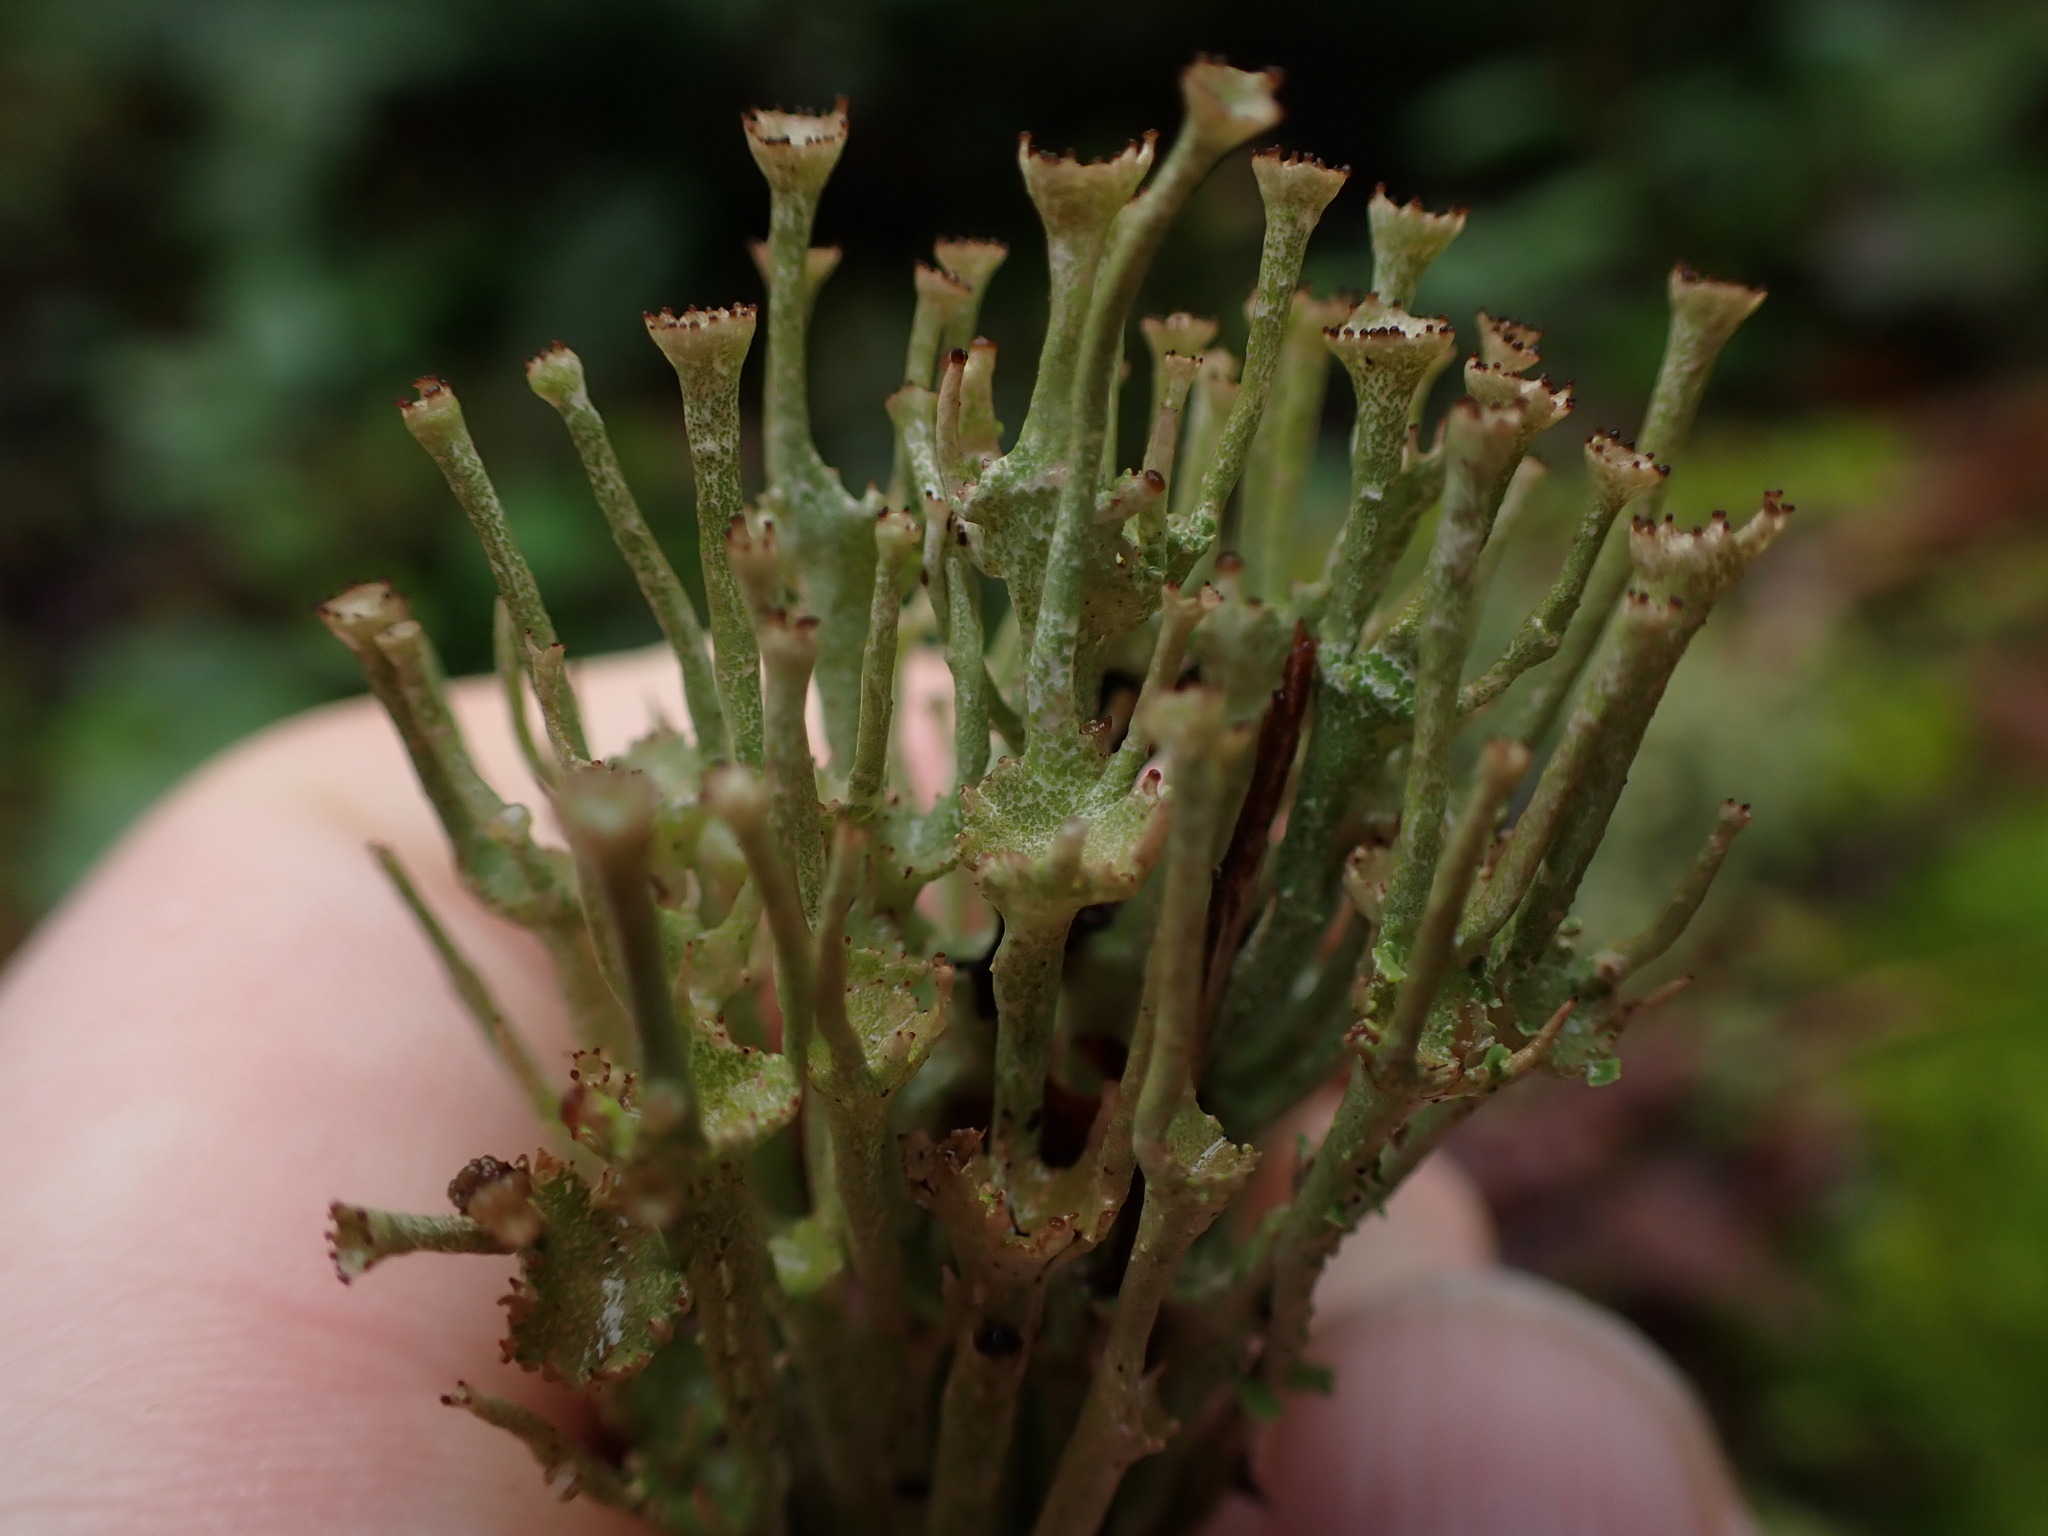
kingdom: Fungi
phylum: Ascomycota
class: Lecanoromycetes
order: Lecanorales
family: Cladoniaceae
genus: Cladonia
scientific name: Cladonia gracilis
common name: Smooth clad lichen
